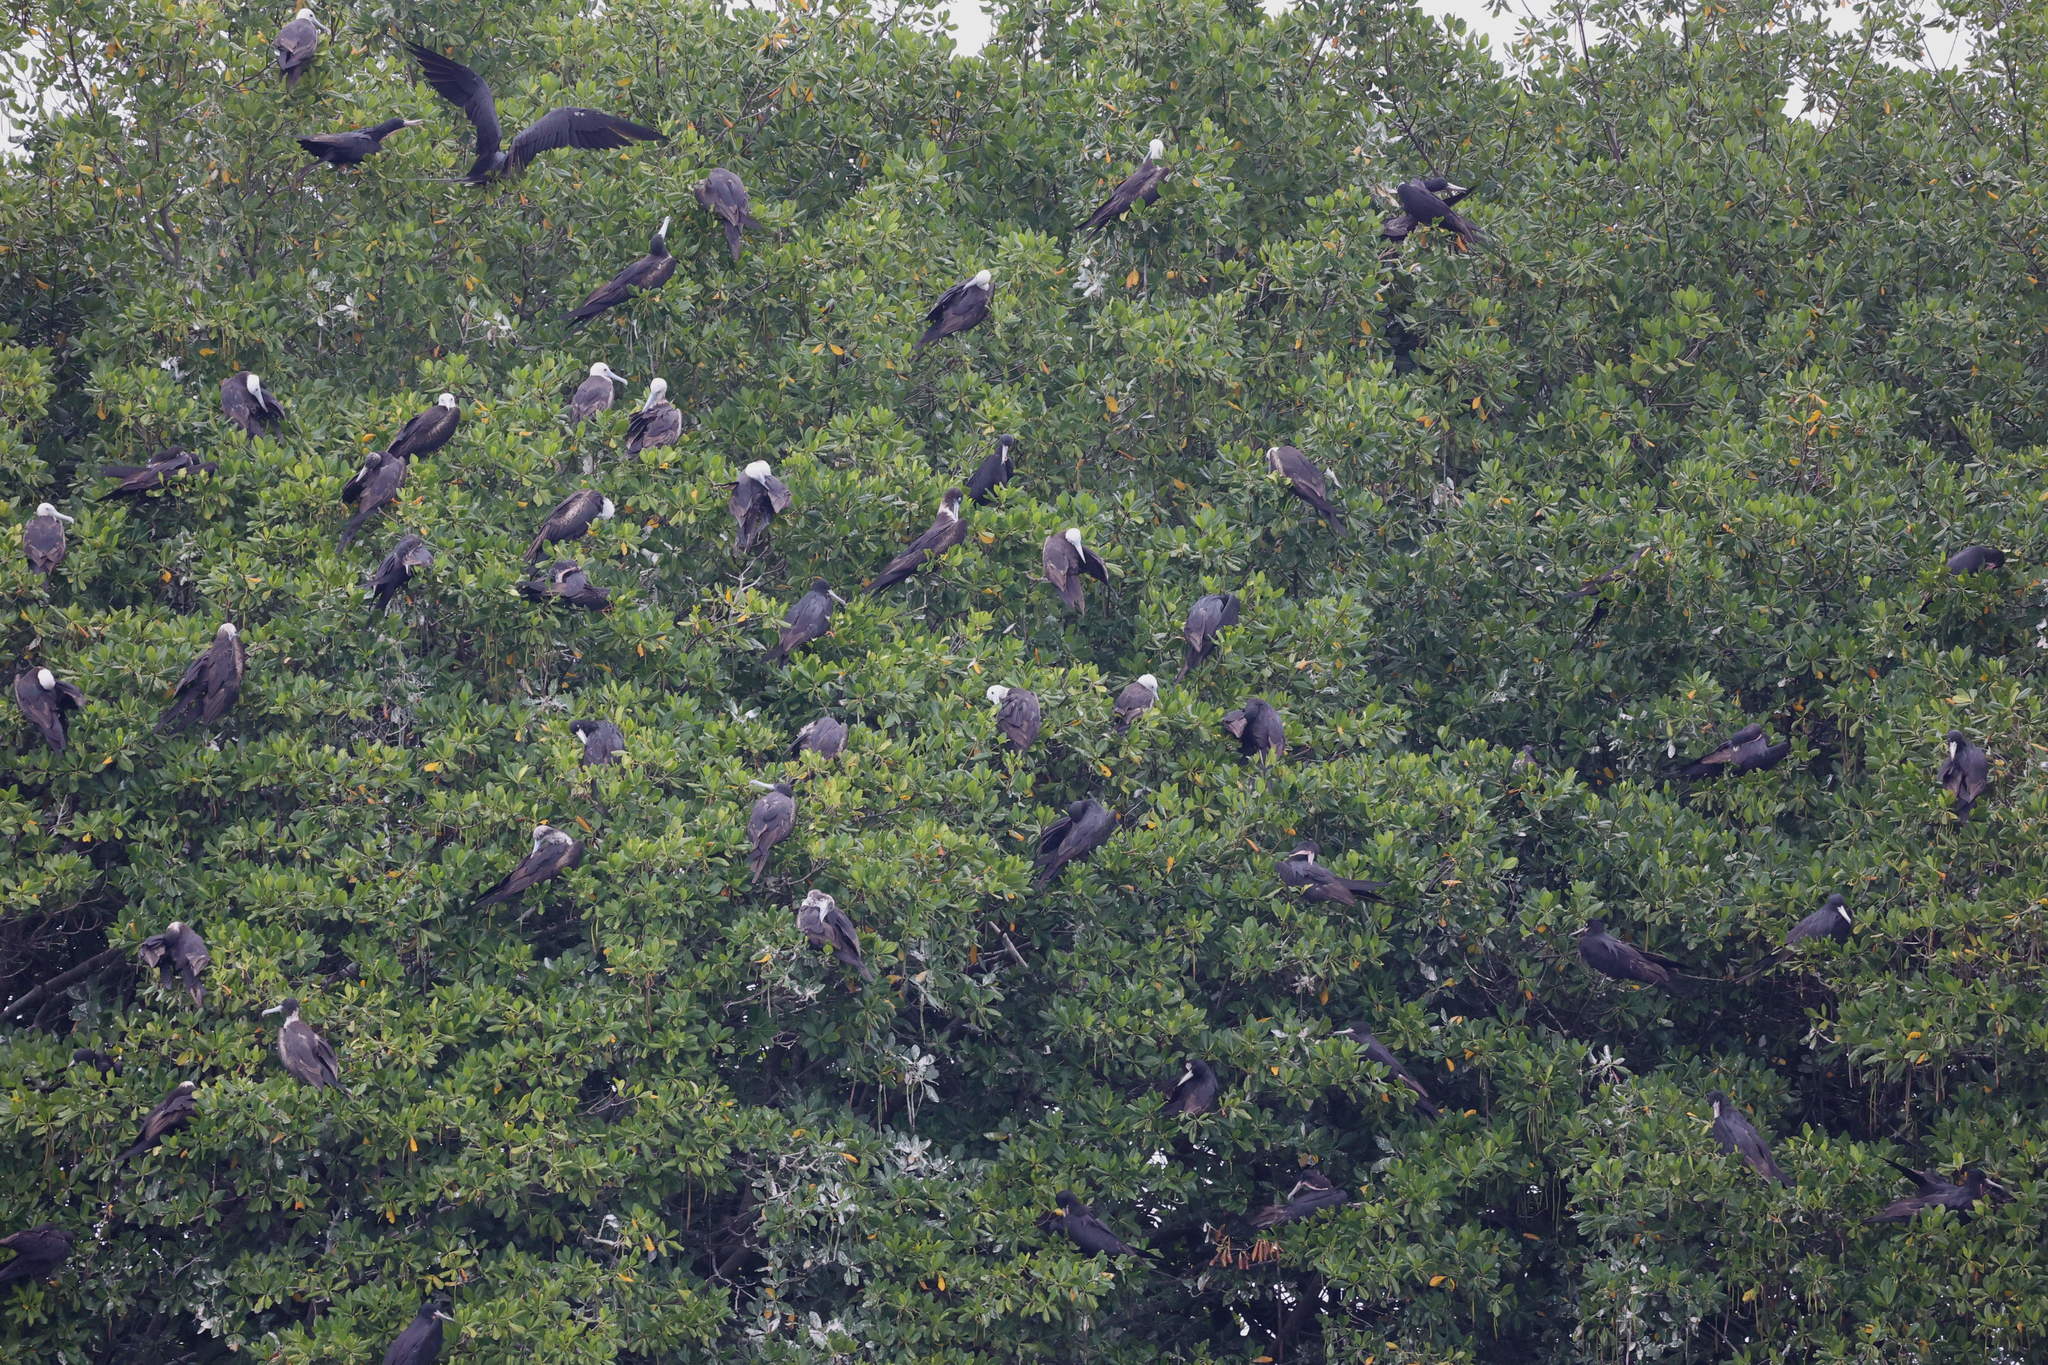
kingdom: Animalia
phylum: Chordata
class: Aves
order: Suliformes
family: Fregatidae
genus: Fregata
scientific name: Fregata magnificens
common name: Magnificent frigatebird
